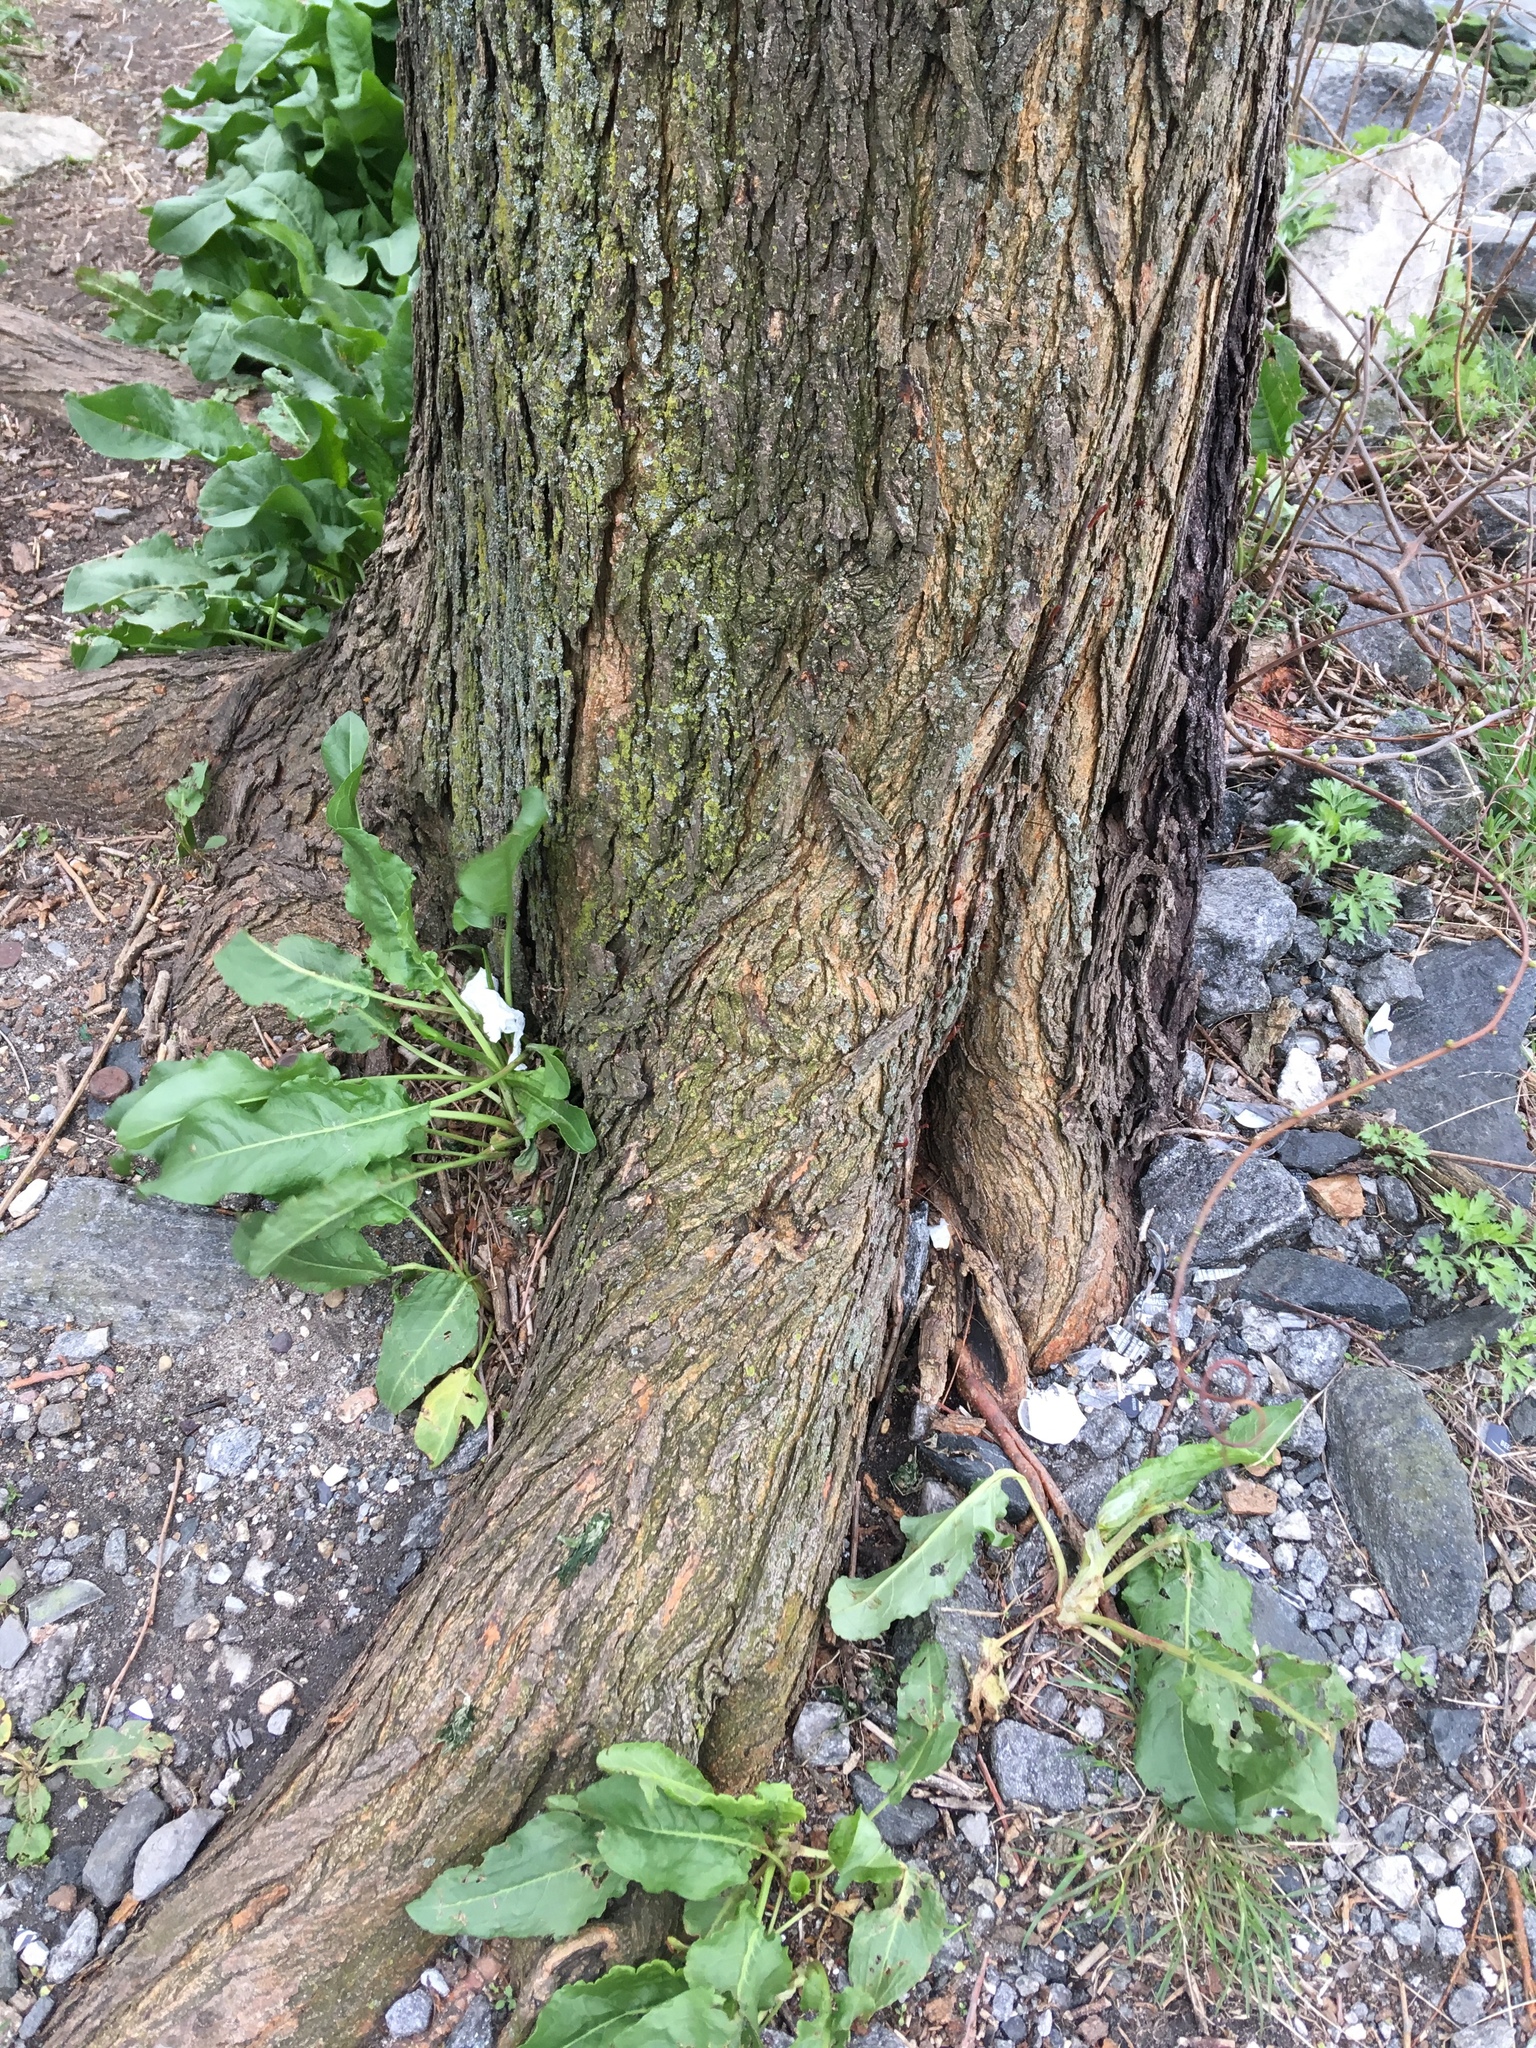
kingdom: Plantae
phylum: Tracheophyta
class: Magnoliopsida
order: Rosales
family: Moraceae
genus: Morus
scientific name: Morus alba
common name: White mulberry
